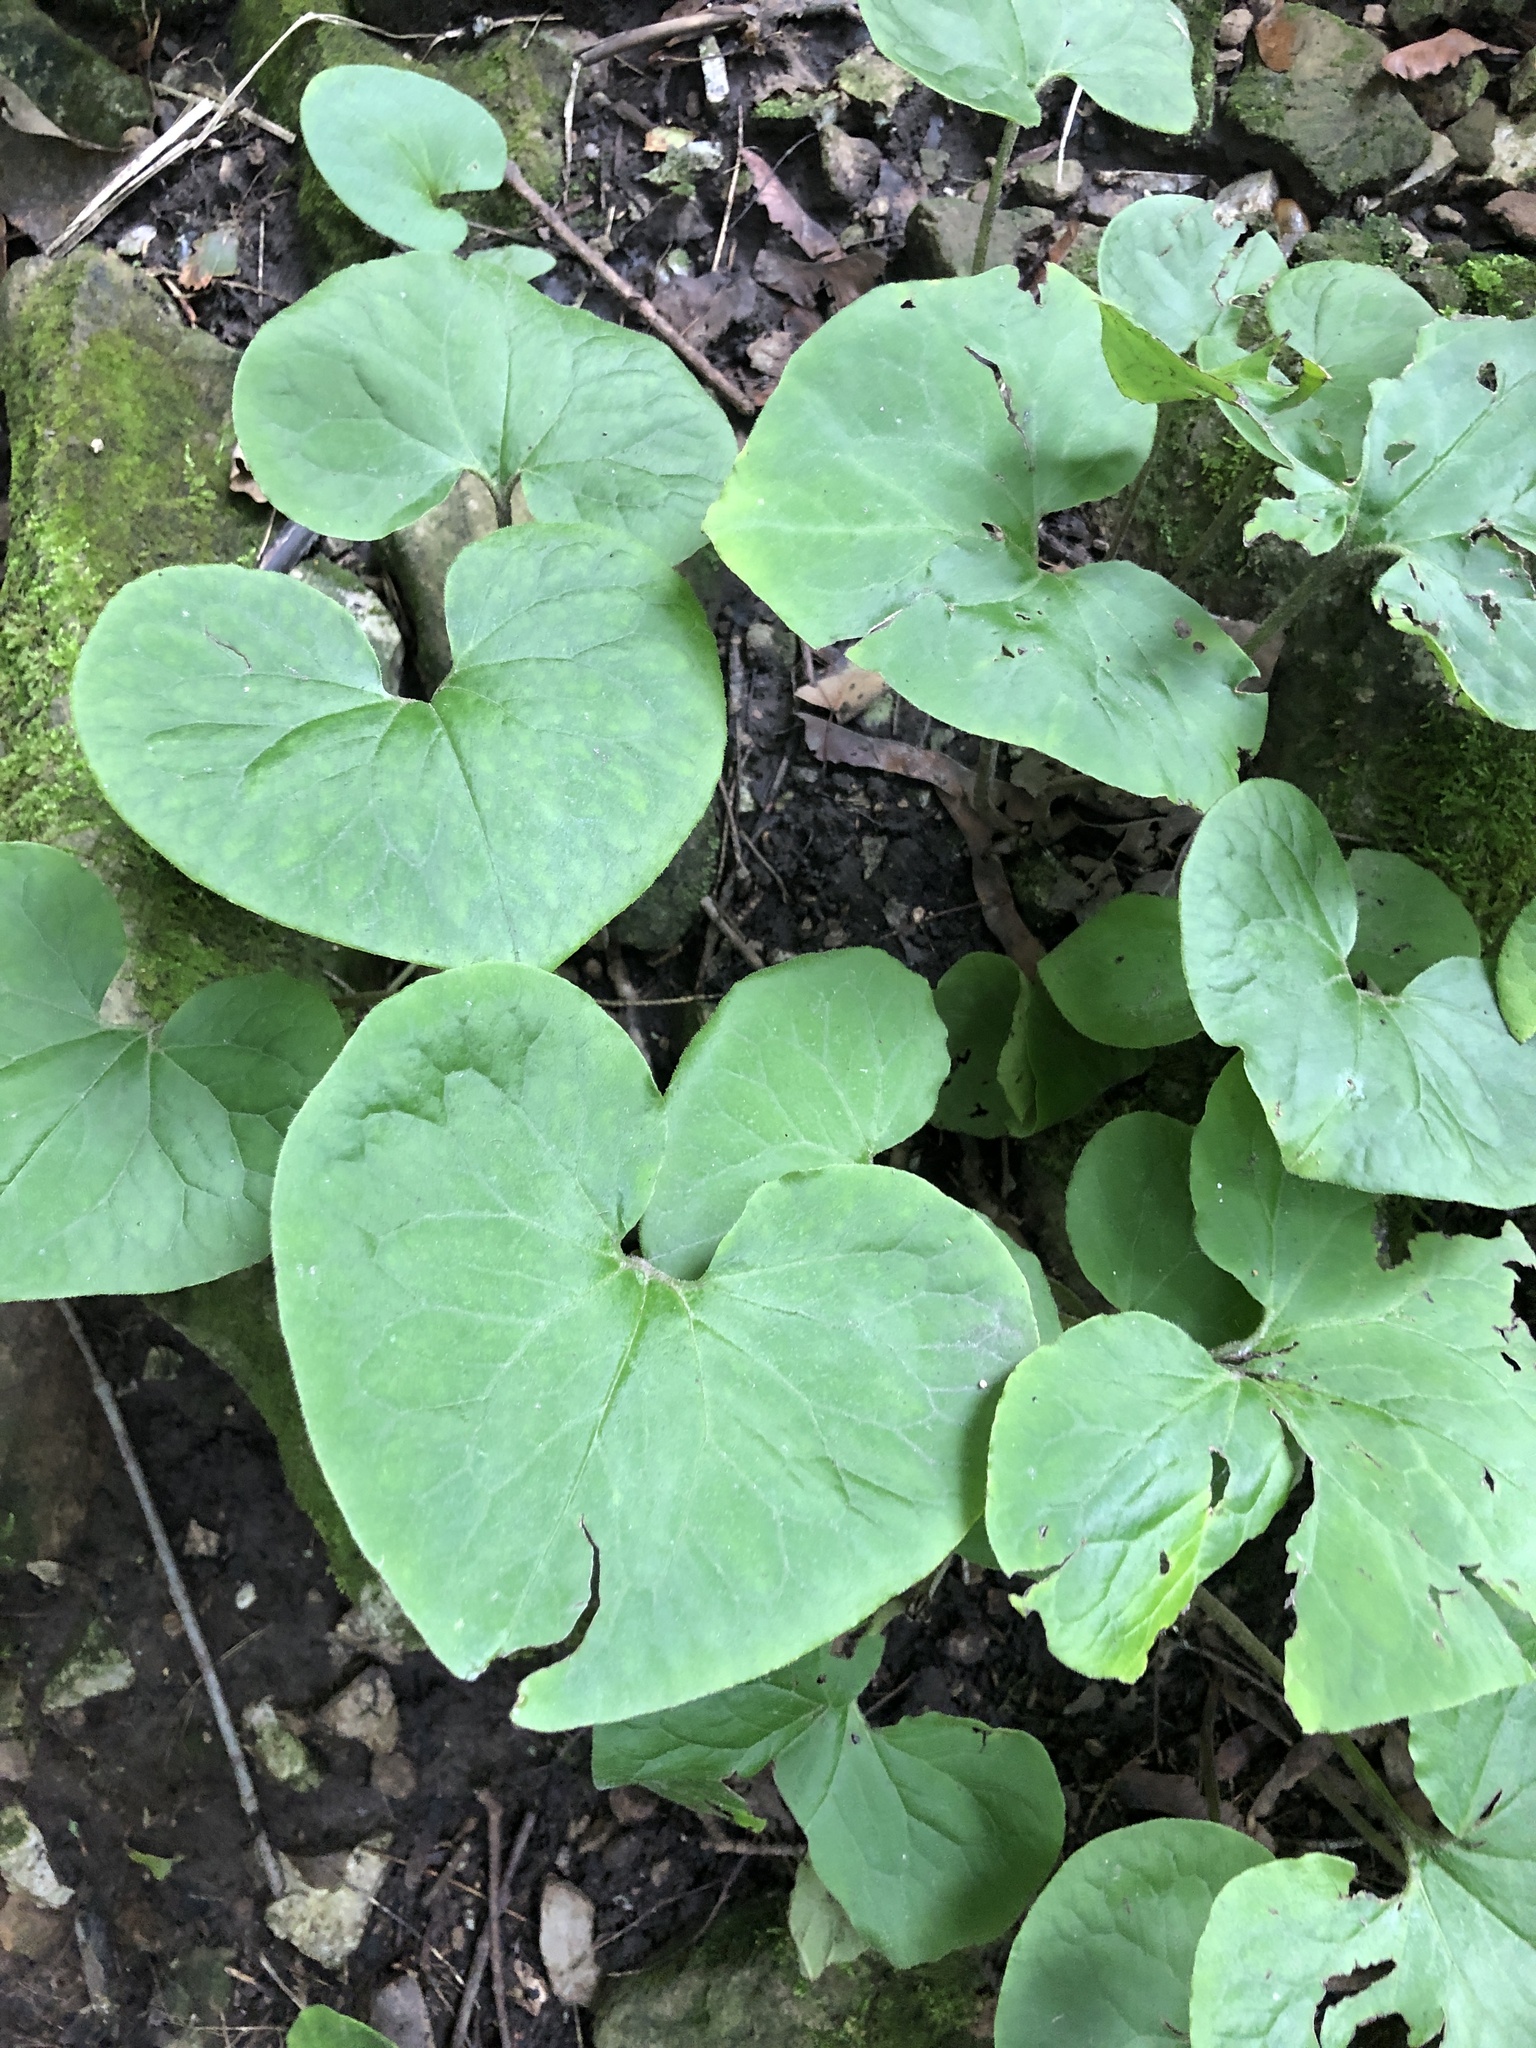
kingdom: Plantae
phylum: Tracheophyta
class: Magnoliopsida
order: Piperales
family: Aristolochiaceae
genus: Asarum
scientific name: Asarum canadense
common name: Wild ginger
